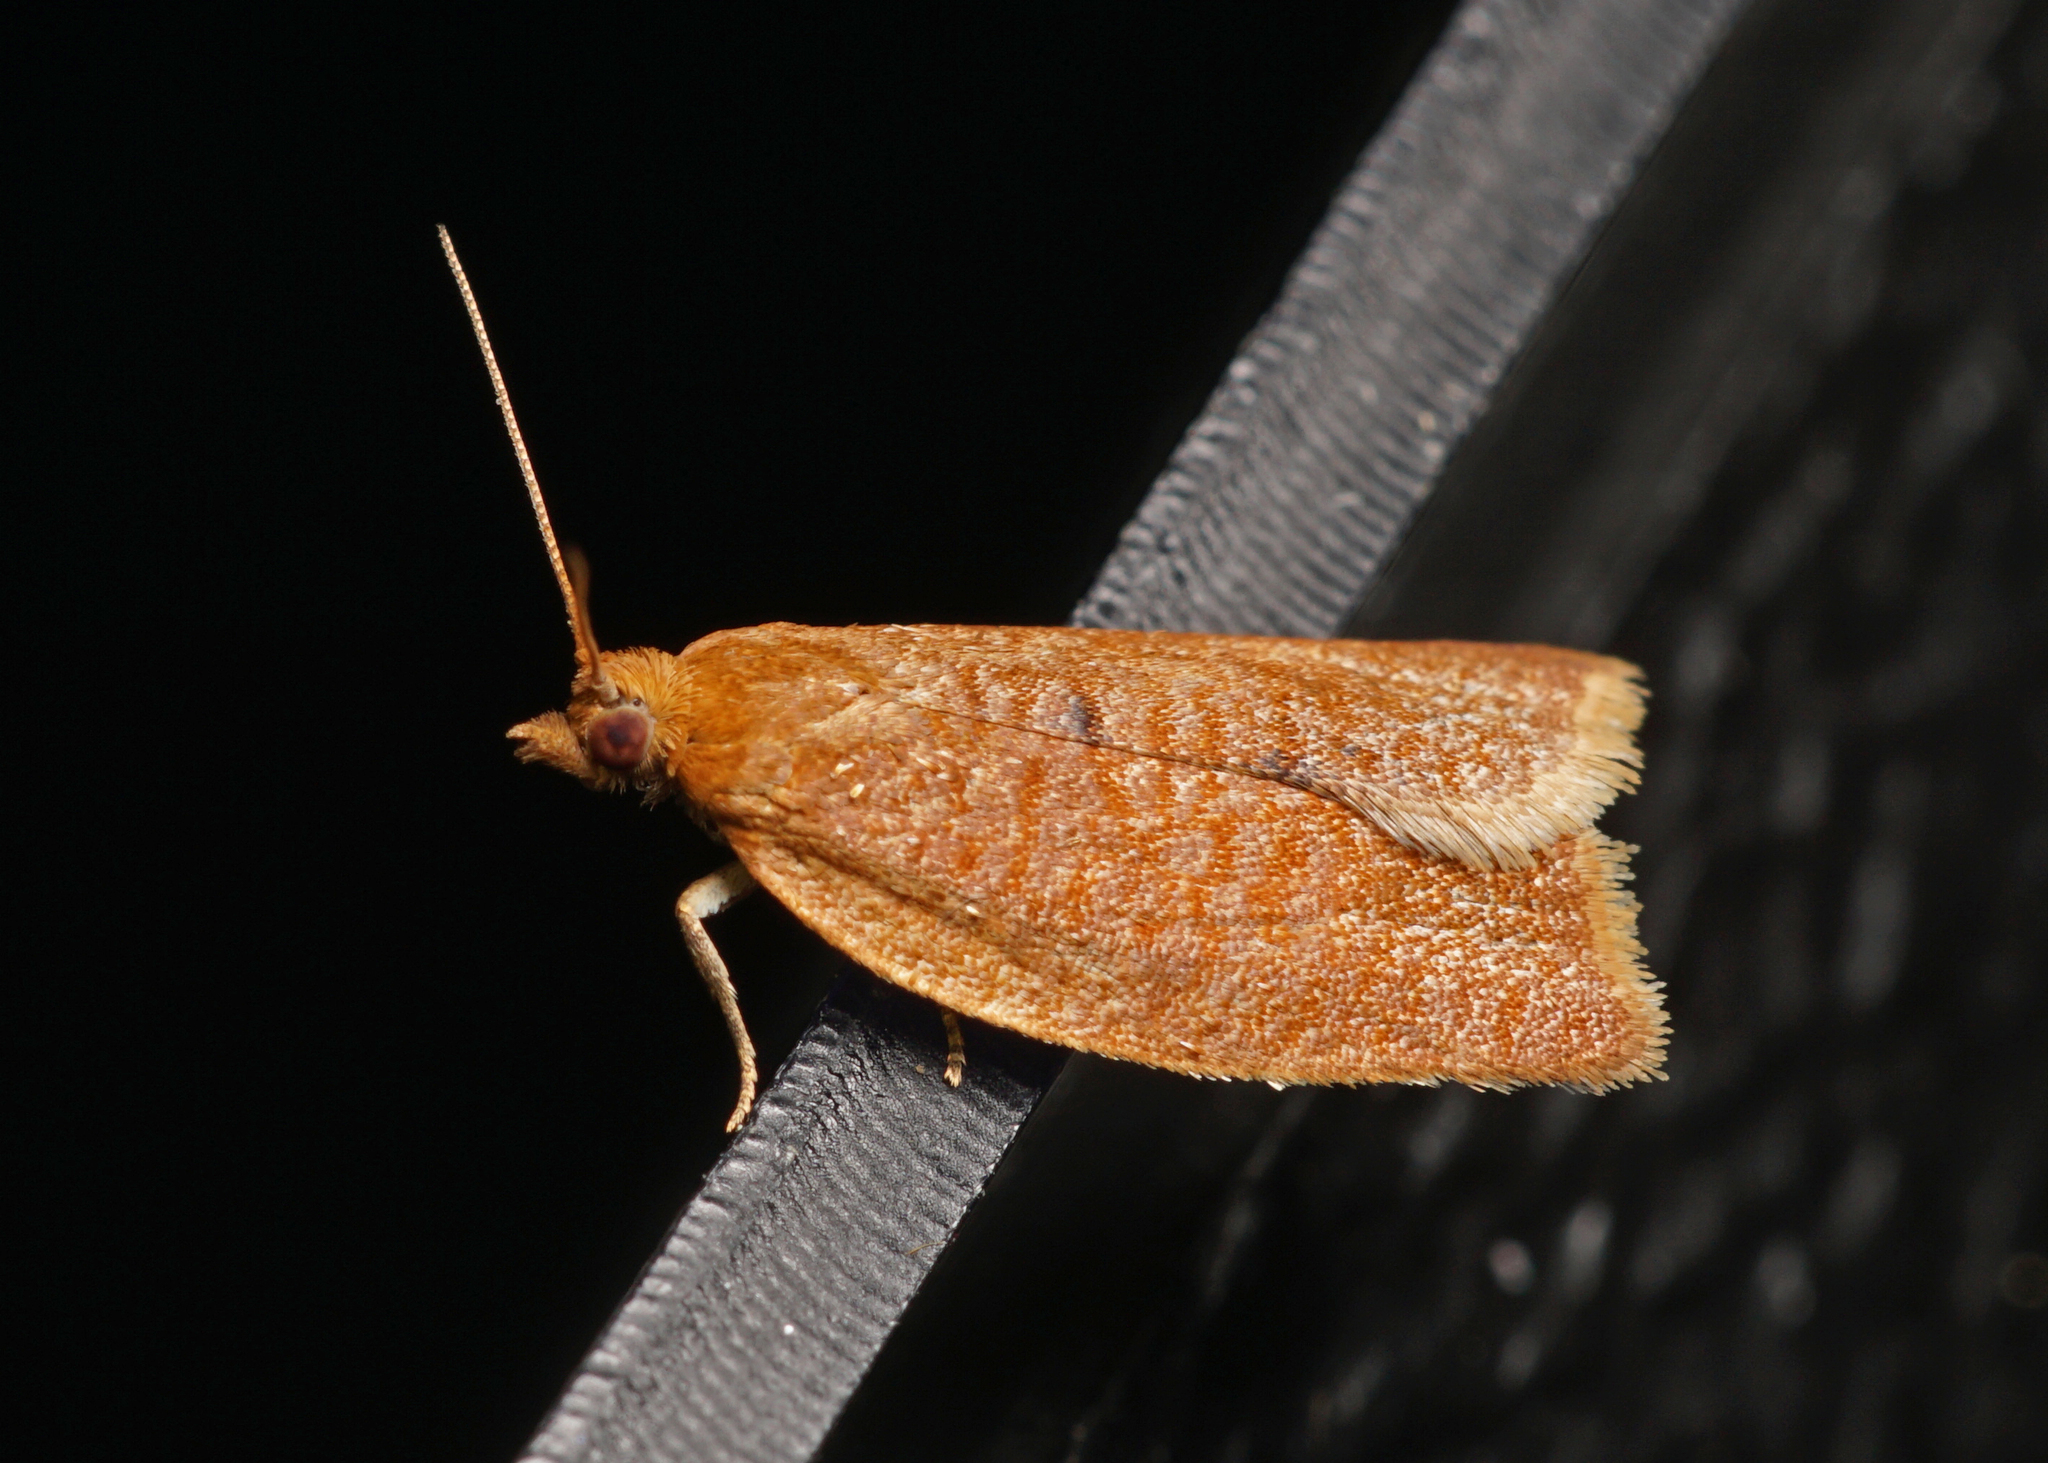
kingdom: Animalia
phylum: Arthropoda
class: Insecta
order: Lepidoptera
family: Tortricidae
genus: Clepsis
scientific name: Clepsis consimilana
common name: Privet tortrix
